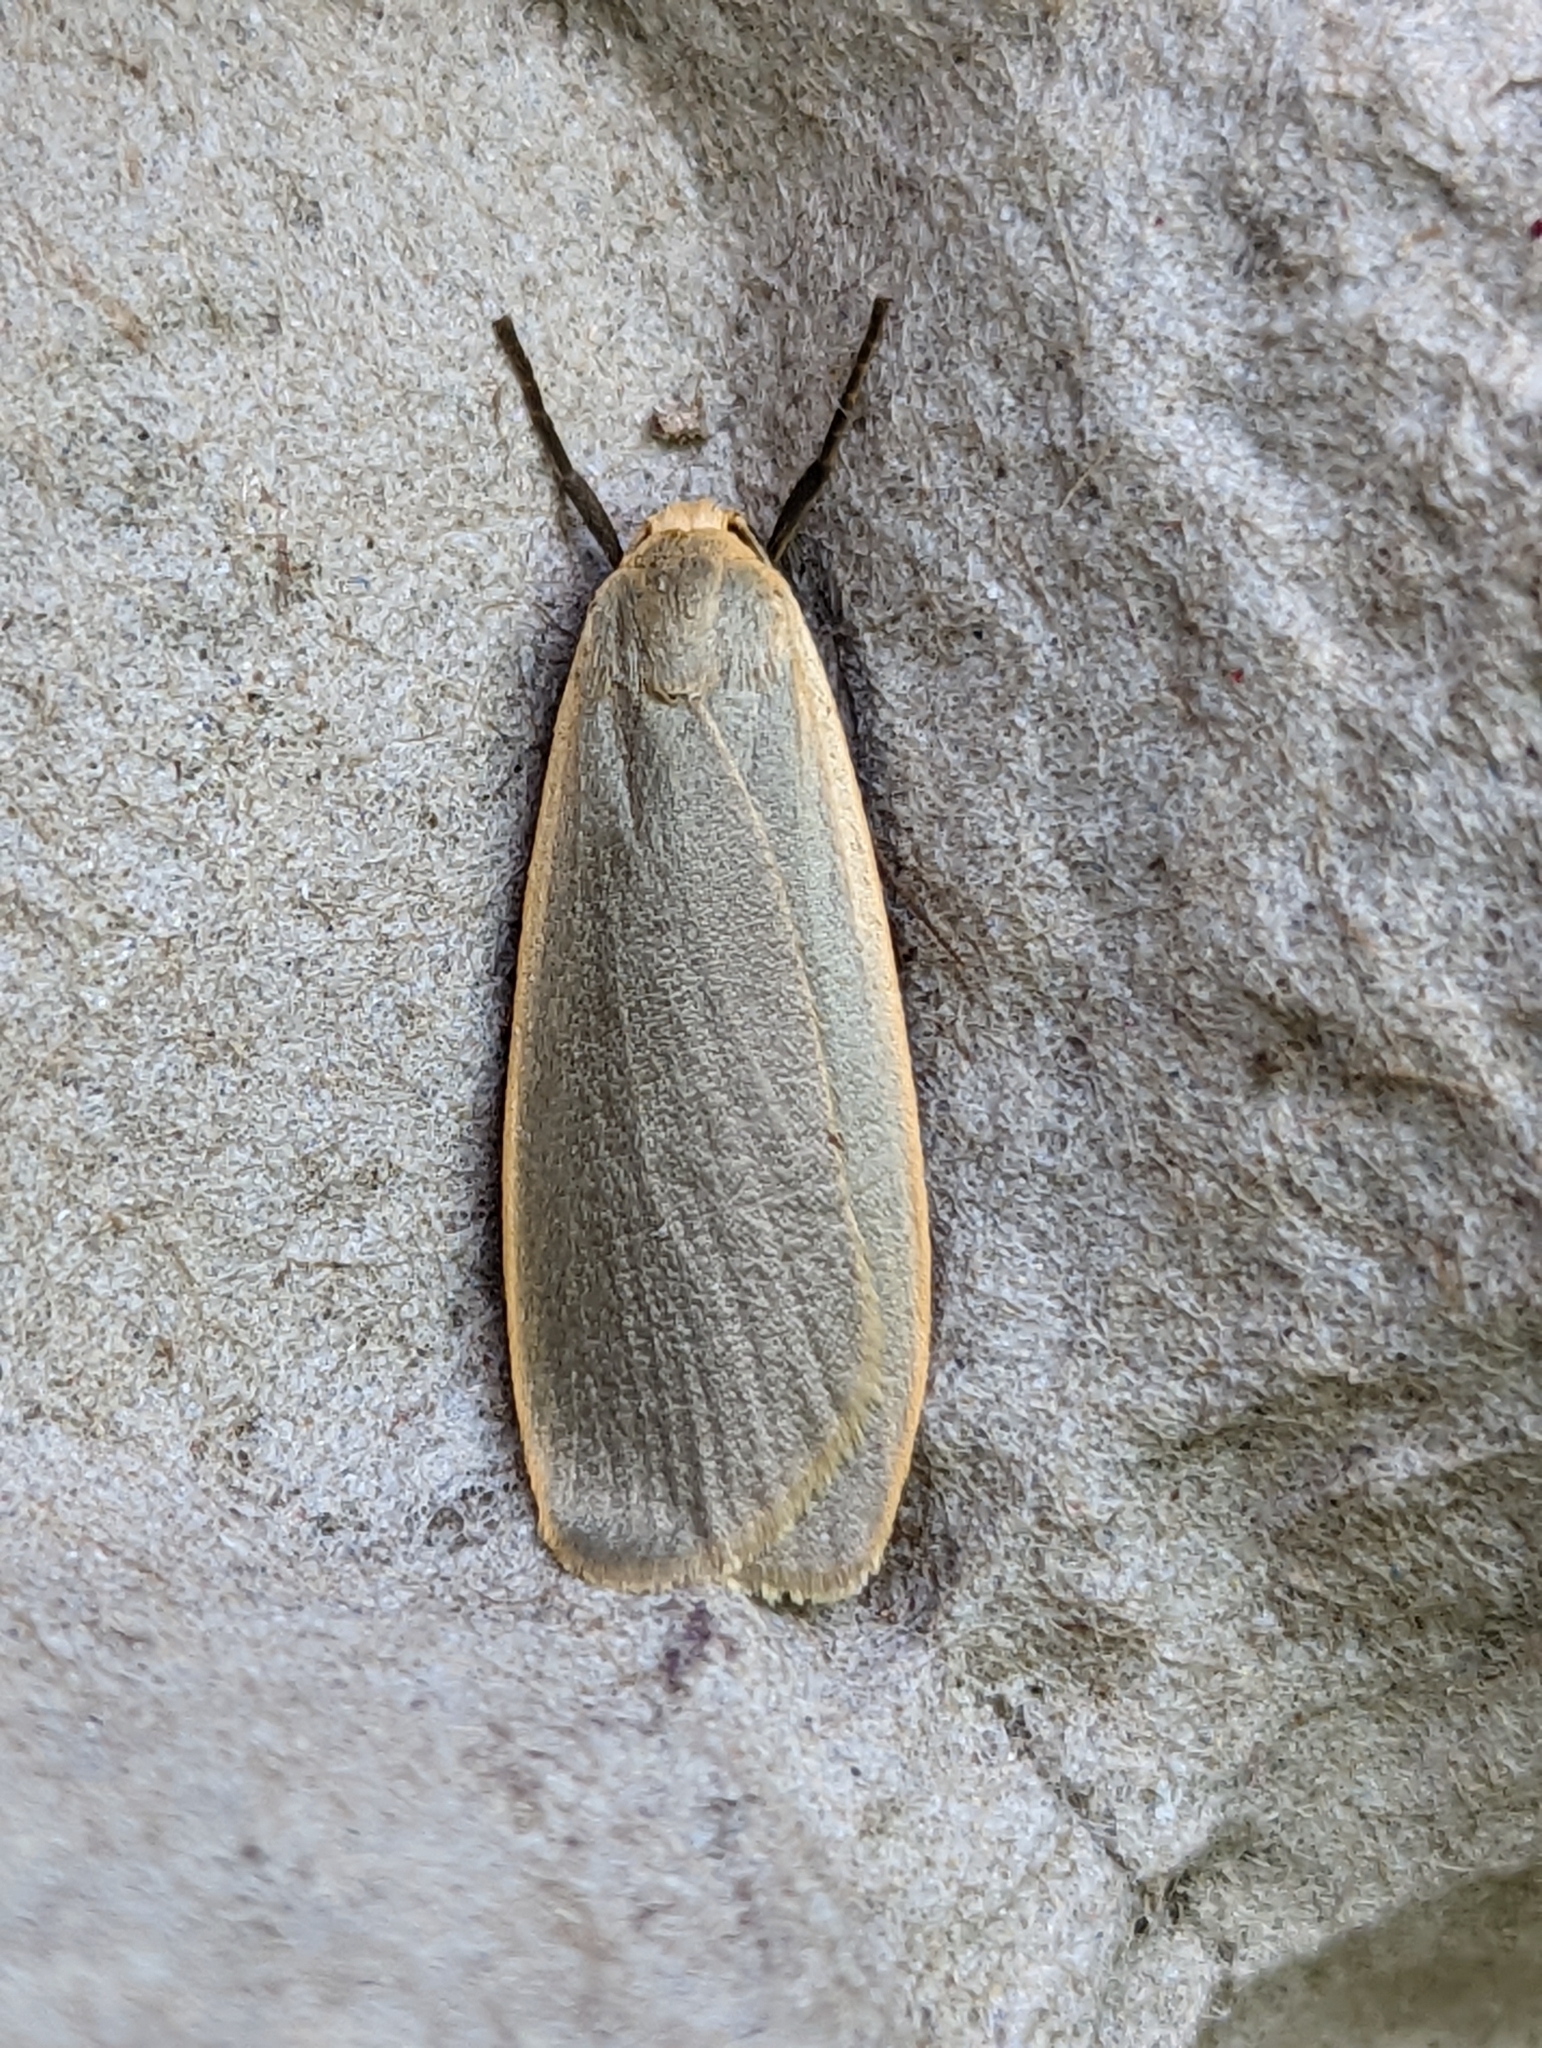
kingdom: Animalia
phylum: Arthropoda
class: Insecta
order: Lepidoptera
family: Erebidae
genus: Collita
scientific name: Collita griseola
